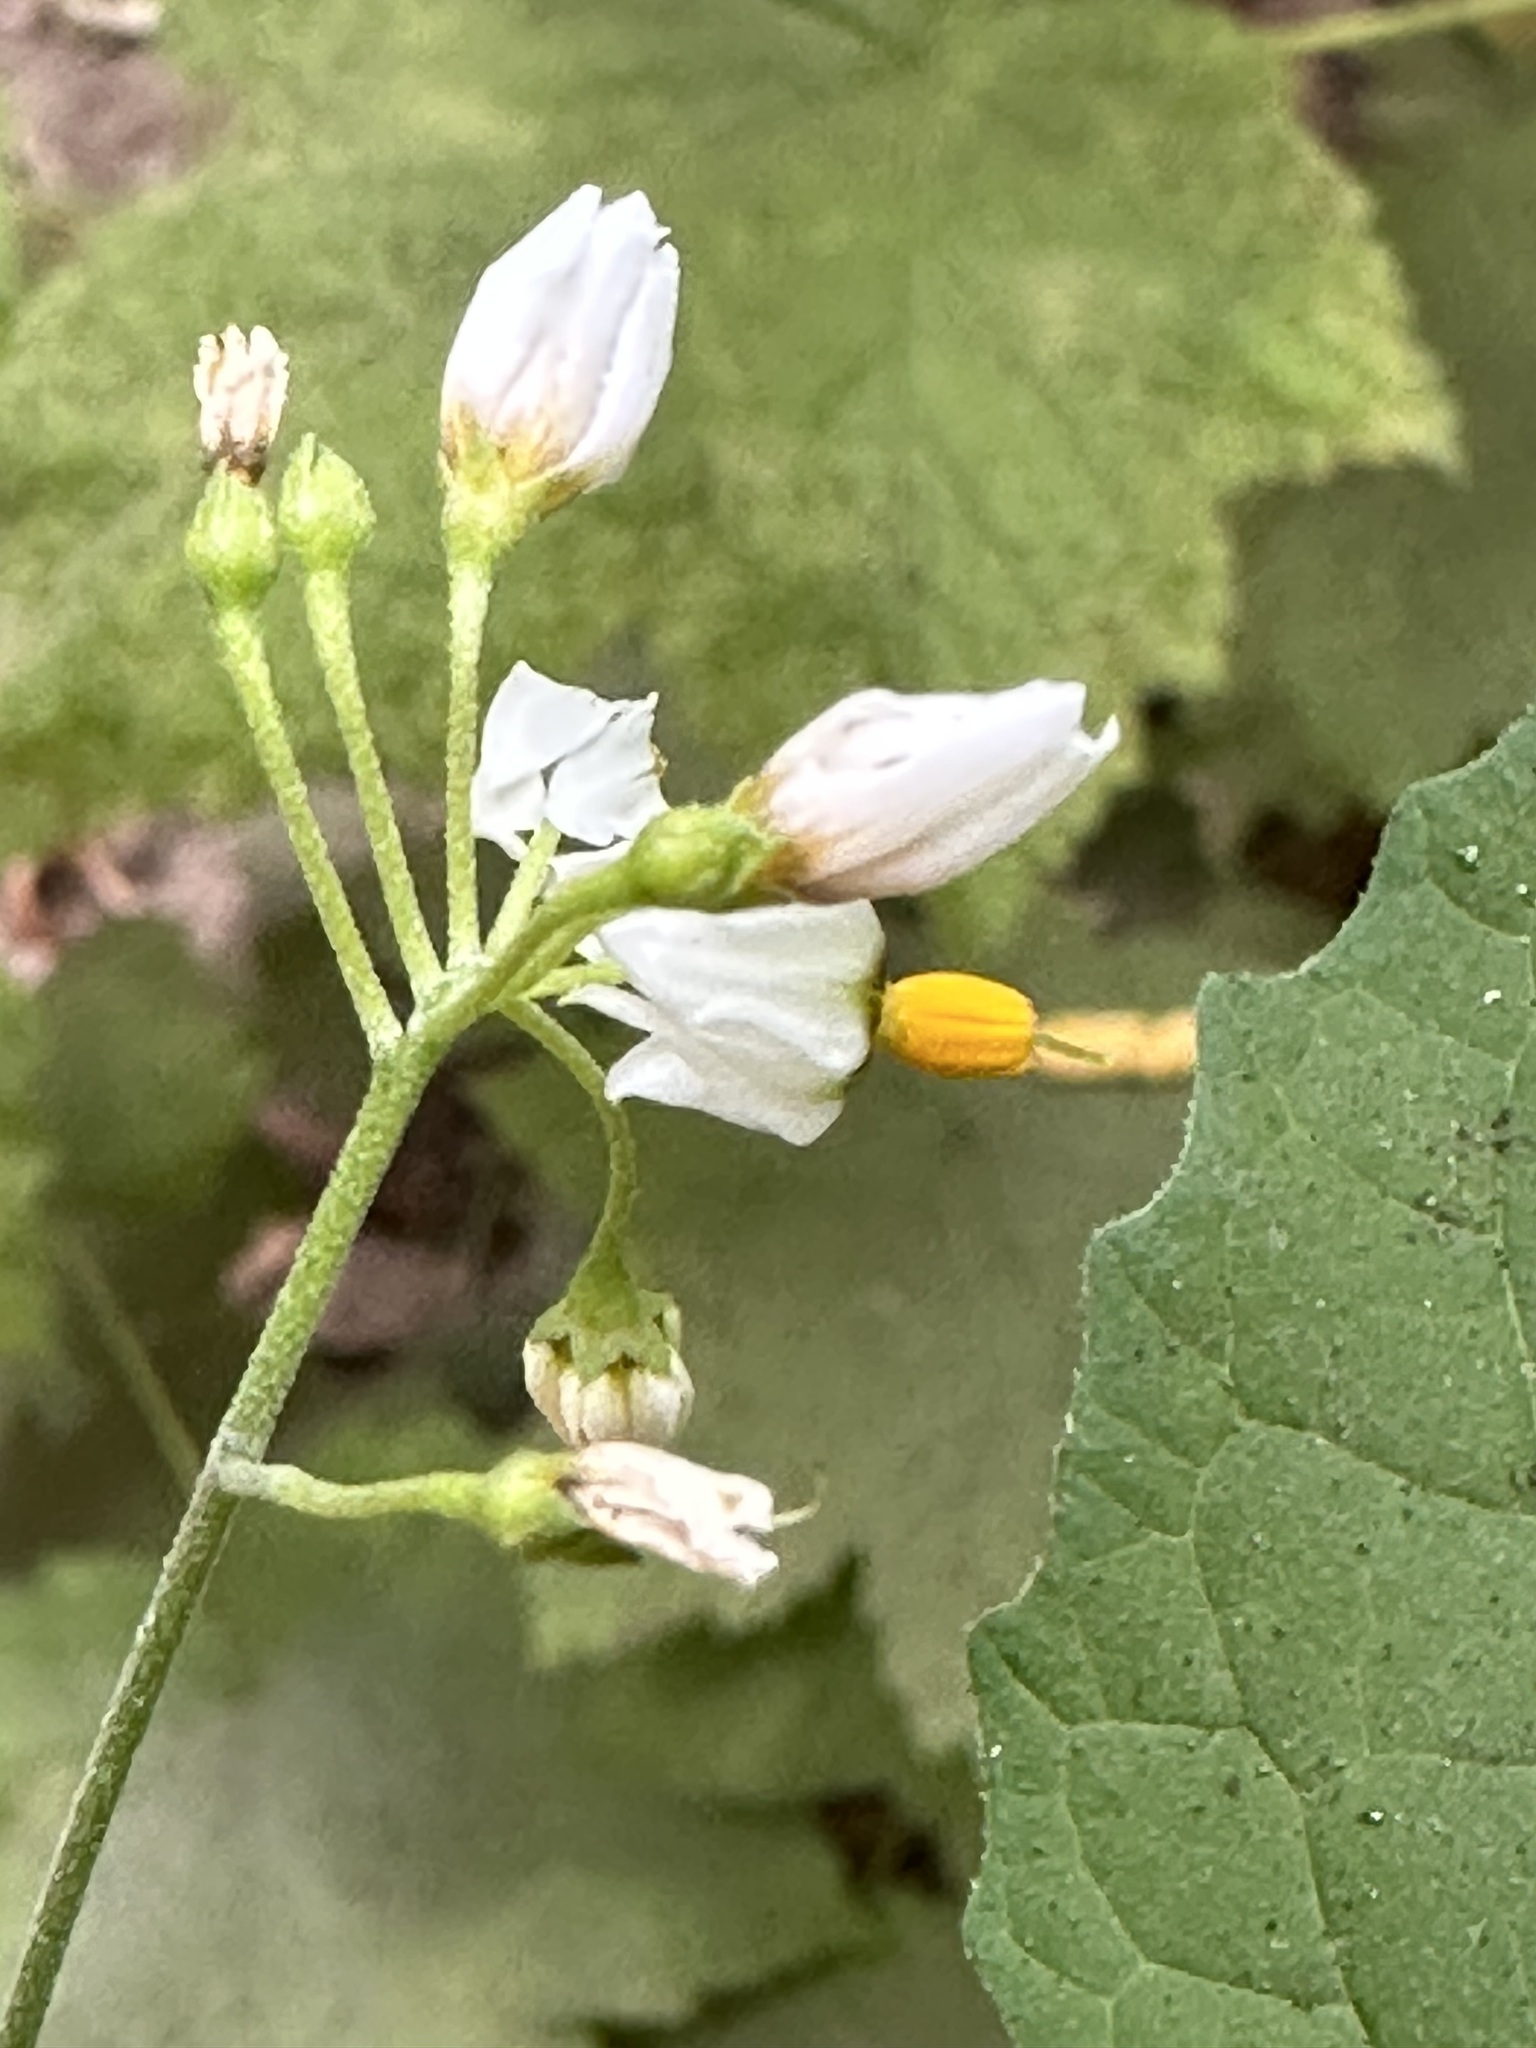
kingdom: Plantae
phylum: Tracheophyta
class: Magnoliopsida
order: Solanales
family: Solanaceae
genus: Solanum
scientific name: Solanum douglasii
